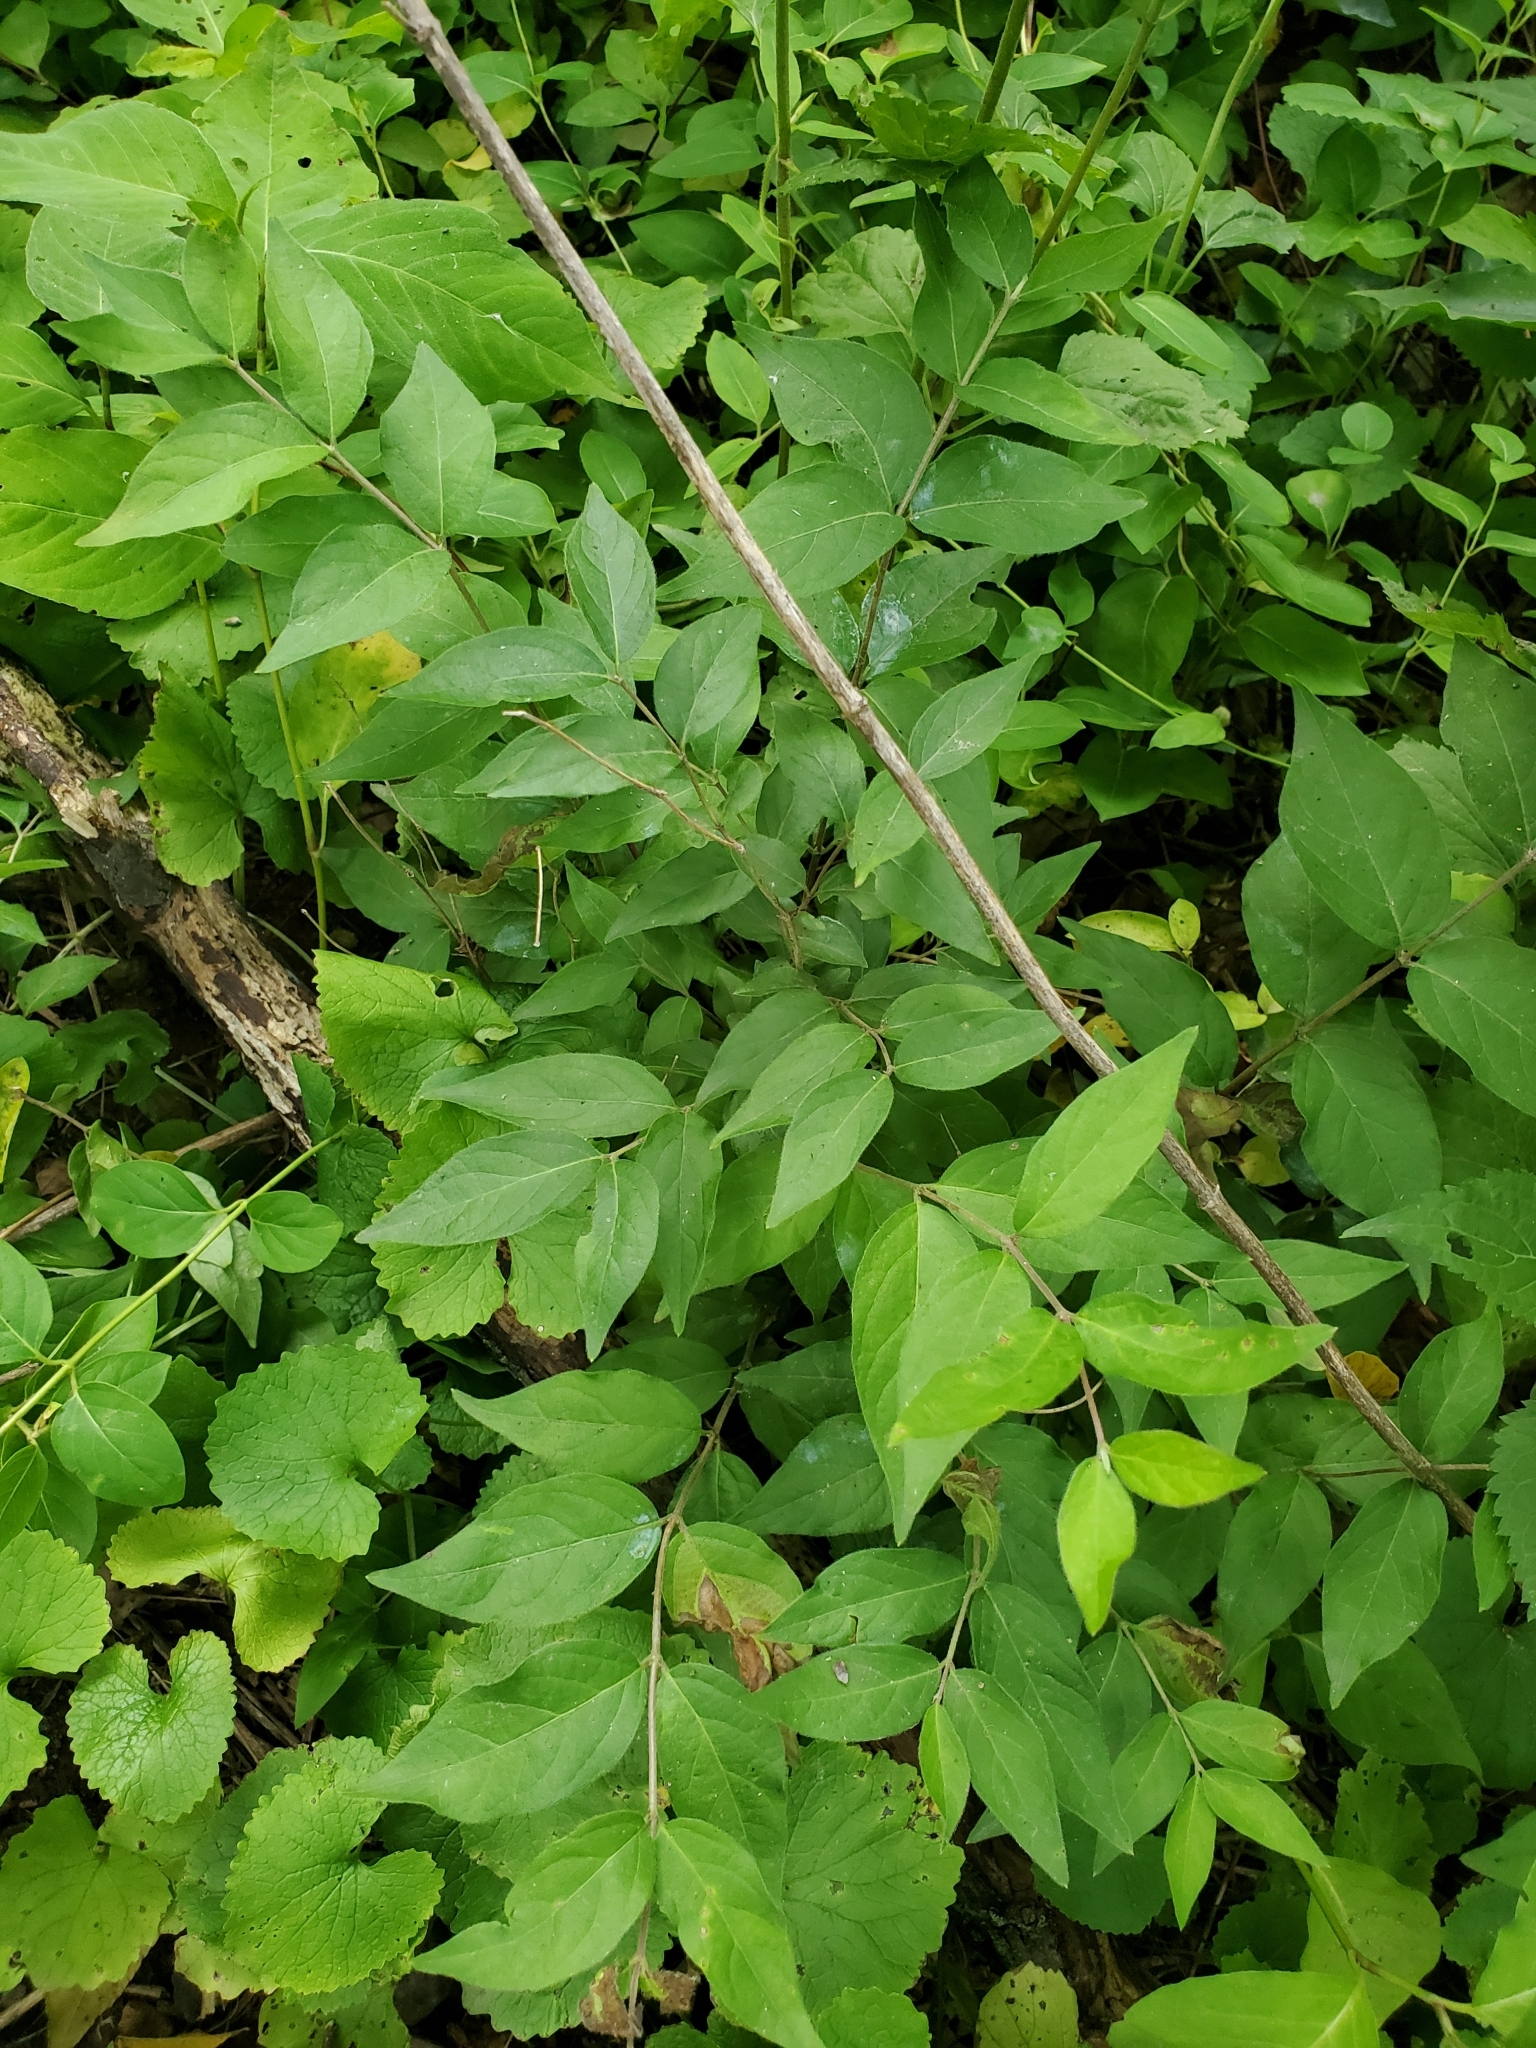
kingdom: Plantae
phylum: Tracheophyta
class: Magnoliopsida
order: Dipsacales
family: Caprifoliaceae
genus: Lonicera
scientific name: Lonicera maackii
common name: Amur honeysuckle
